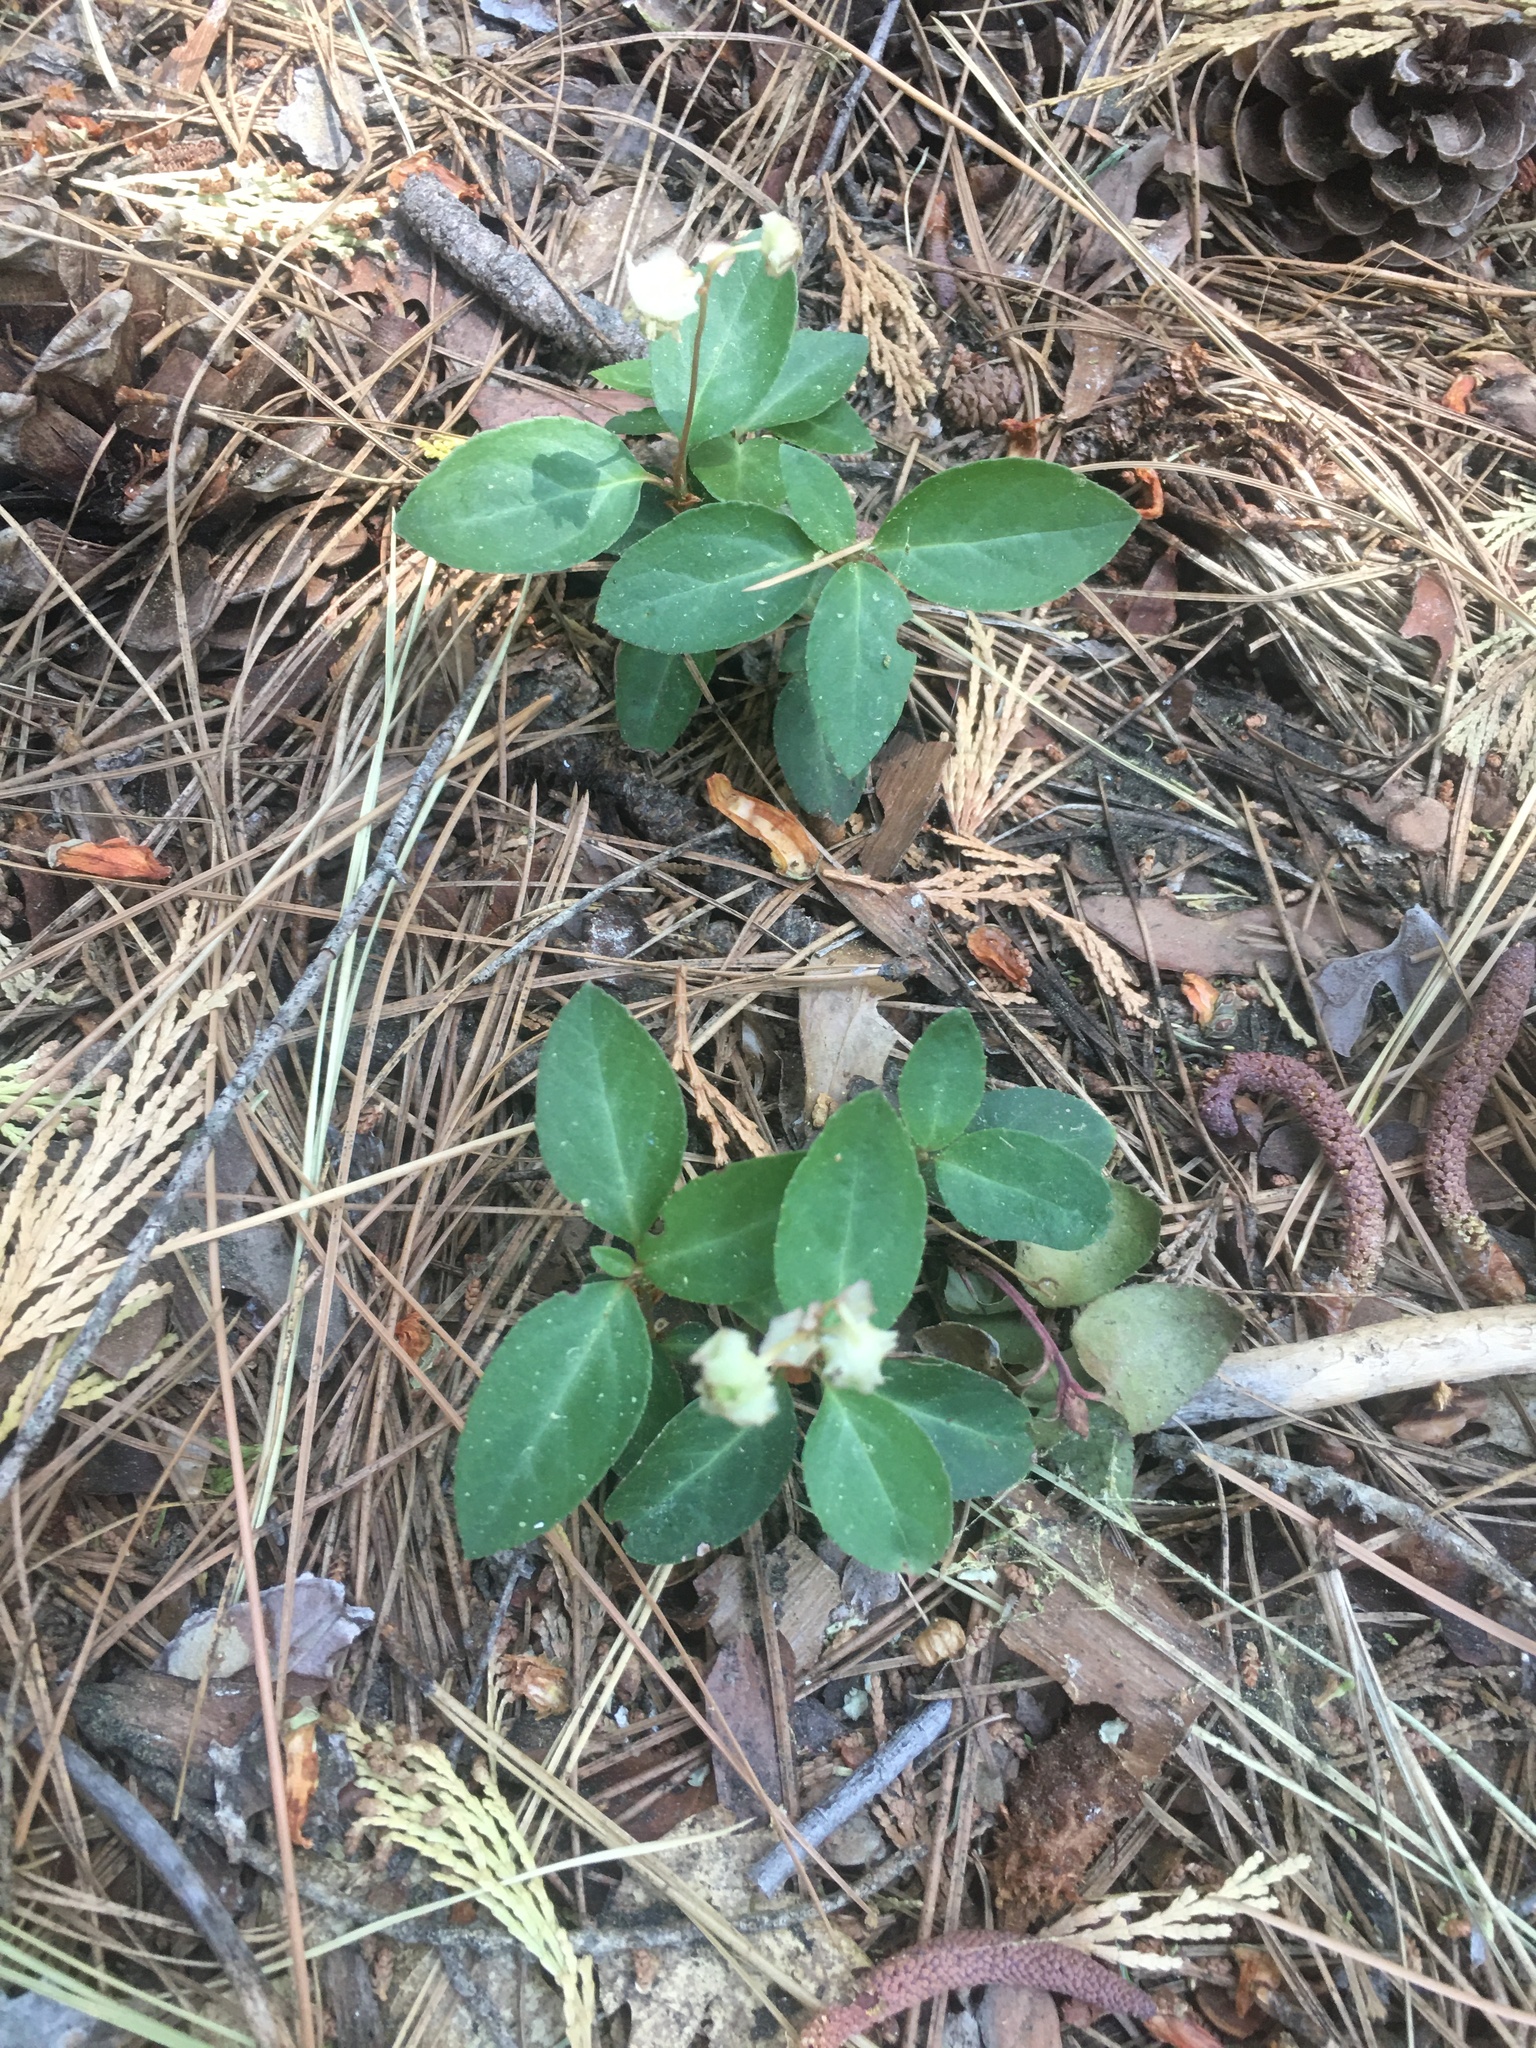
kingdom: Plantae
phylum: Tracheophyta
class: Magnoliopsida
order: Ericales
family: Ericaceae
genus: Chimaphila
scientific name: Chimaphila menziesii
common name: Menzies' pipsissewa
